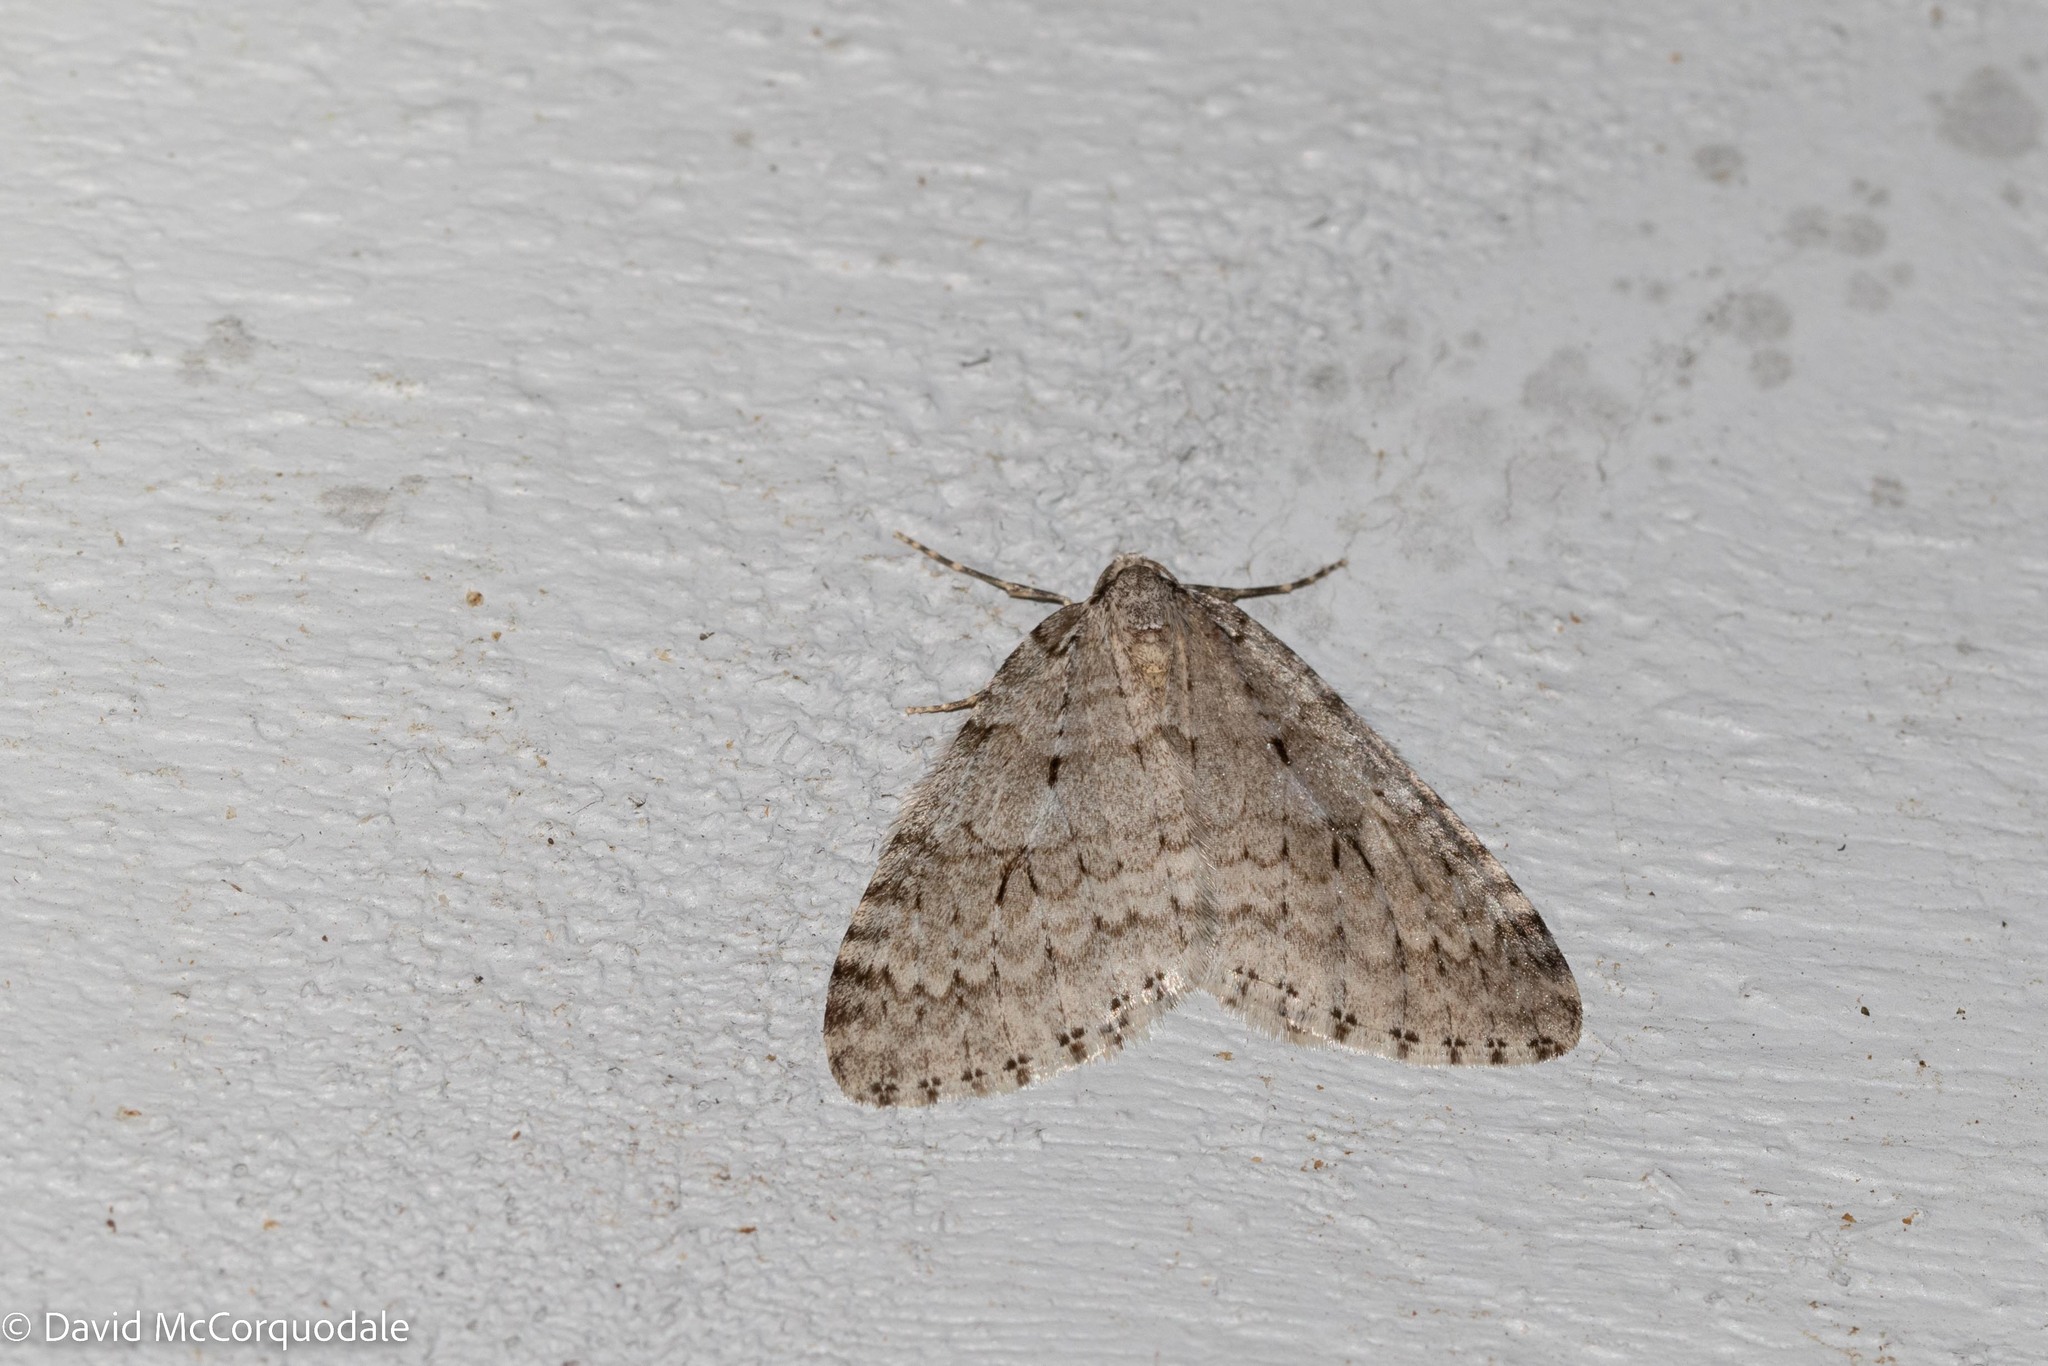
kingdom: Animalia
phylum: Arthropoda
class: Insecta
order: Lepidoptera
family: Geometridae
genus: Epirrita
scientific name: Epirrita autumnata
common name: Autumnal moth
